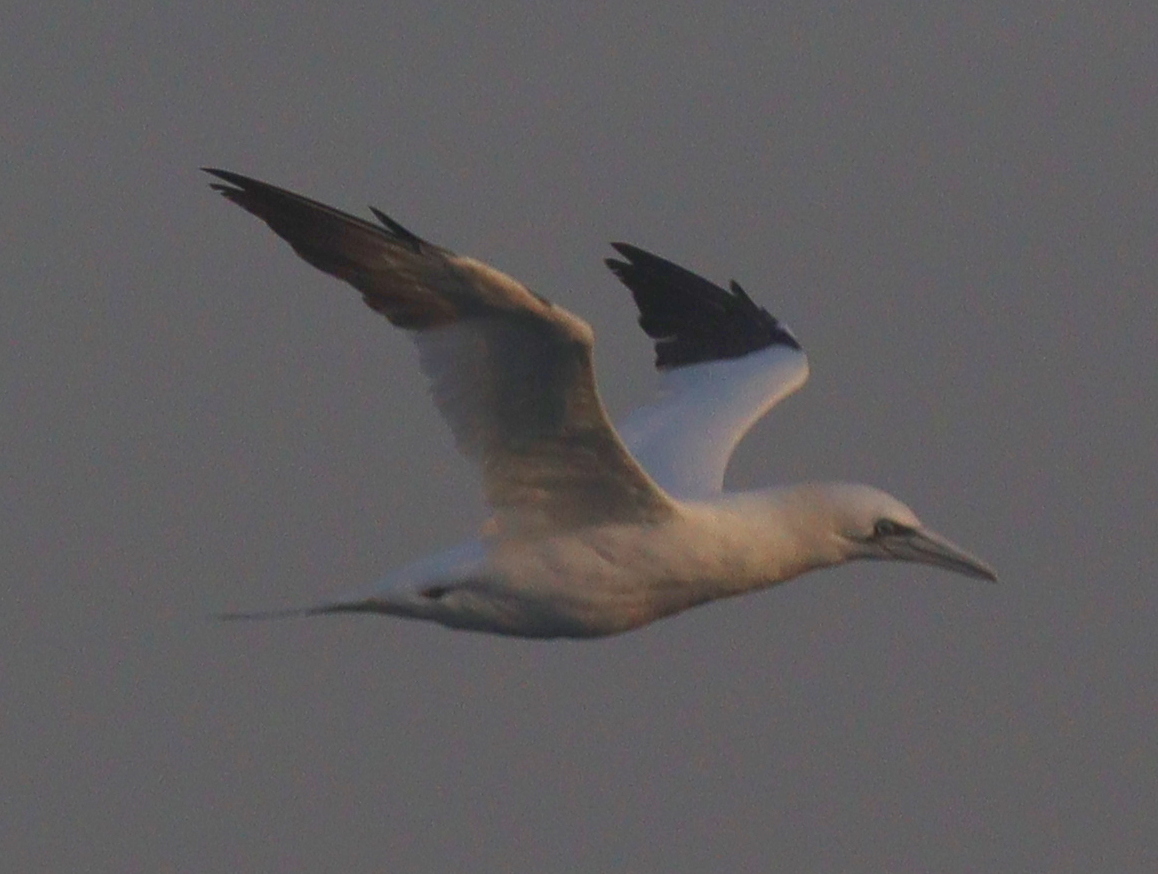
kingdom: Animalia
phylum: Chordata
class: Aves
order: Suliformes
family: Sulidae
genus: Morus
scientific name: Morus bassanus
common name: Northern gannet
